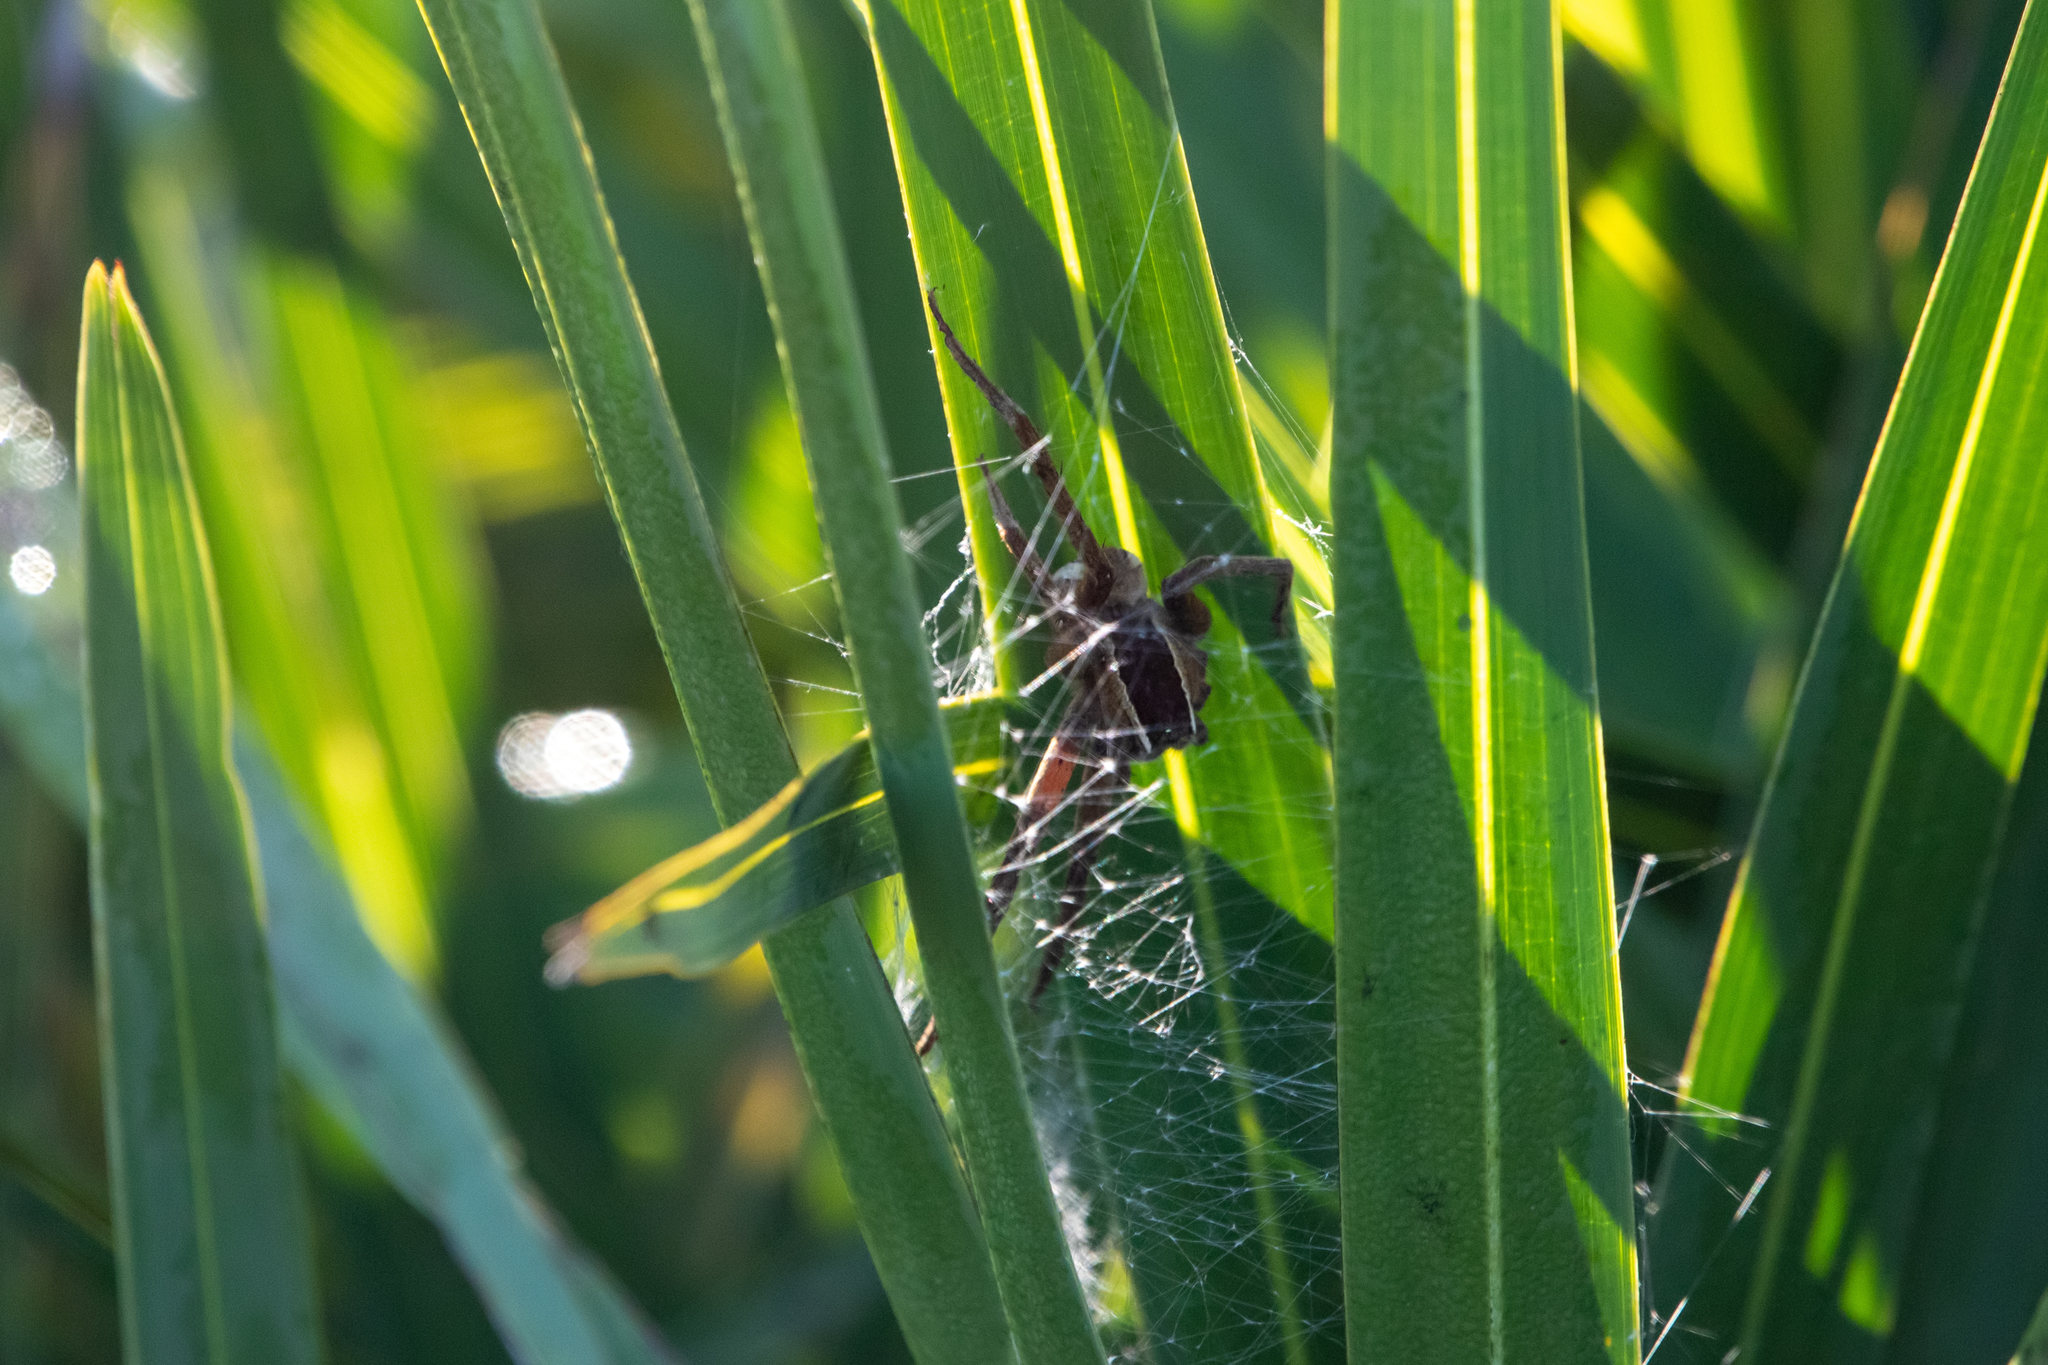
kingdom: Animalia
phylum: Arthropoda
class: Arachnida
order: Araneae
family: Pisauridae
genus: Pisaurina
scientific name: Pisaurina brevipes
